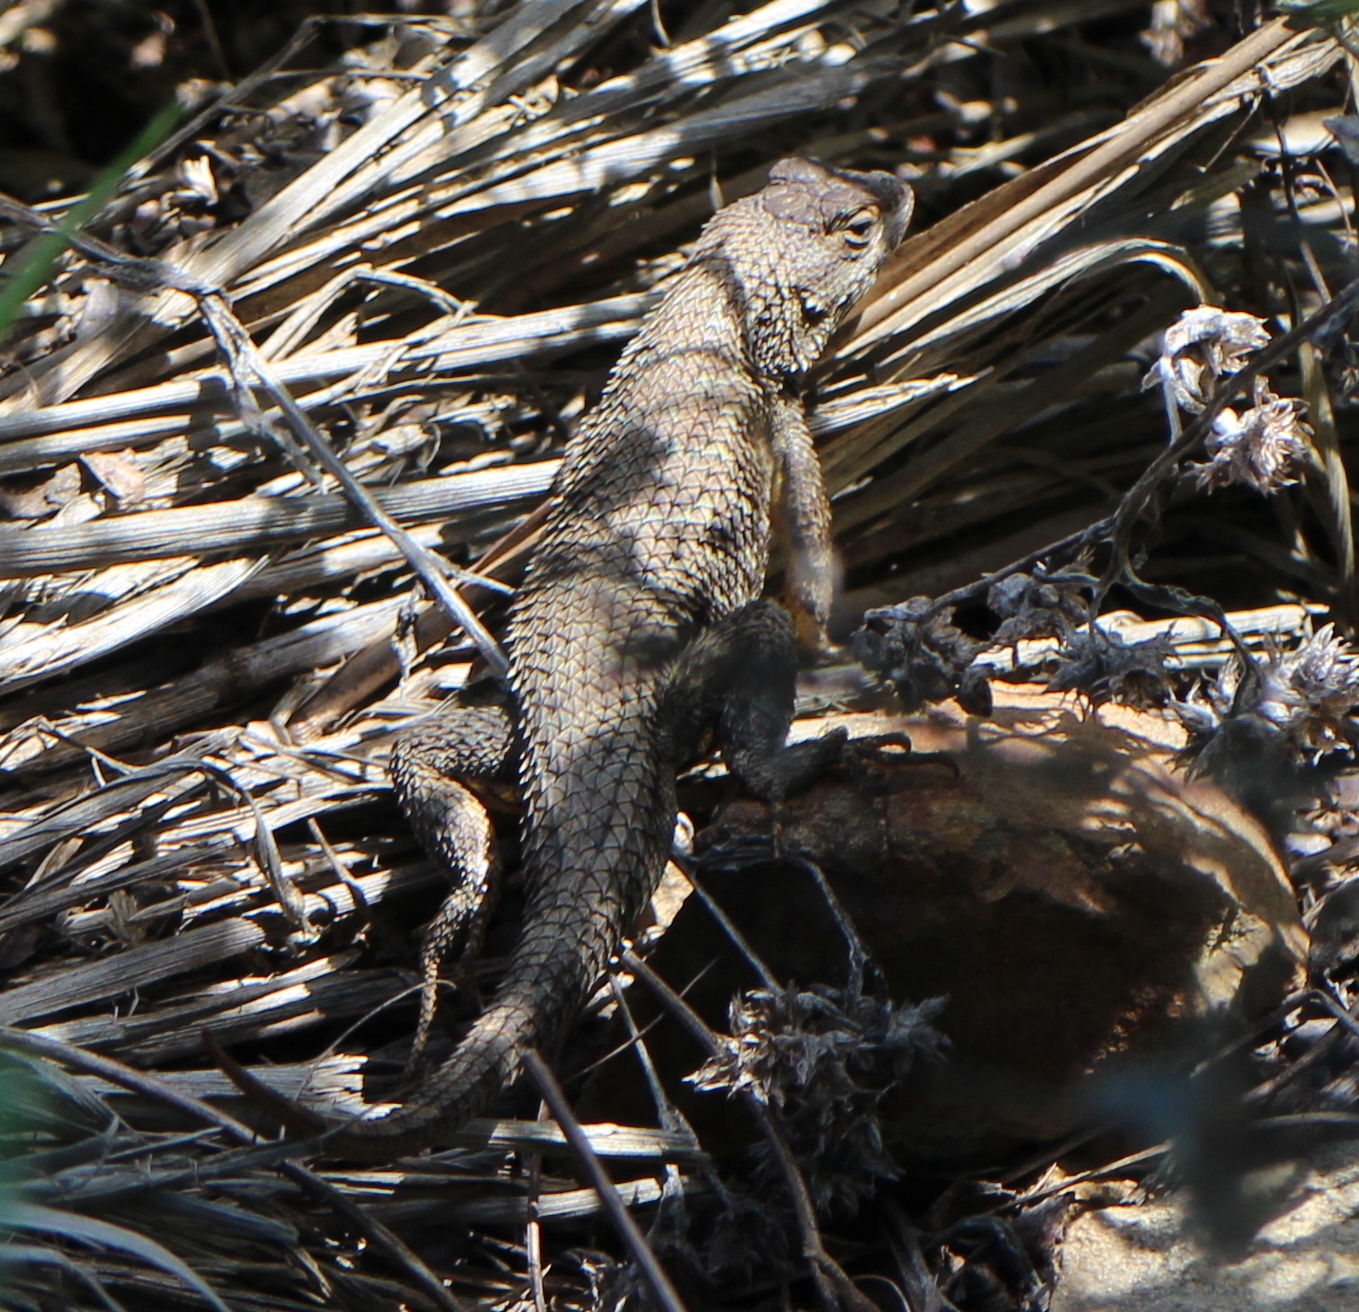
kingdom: Animalia
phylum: Chordata
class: Squamata
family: Phrynosomatidae
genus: Sceloporus
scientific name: Sceloporus occidentalis
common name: Western fence lizard
